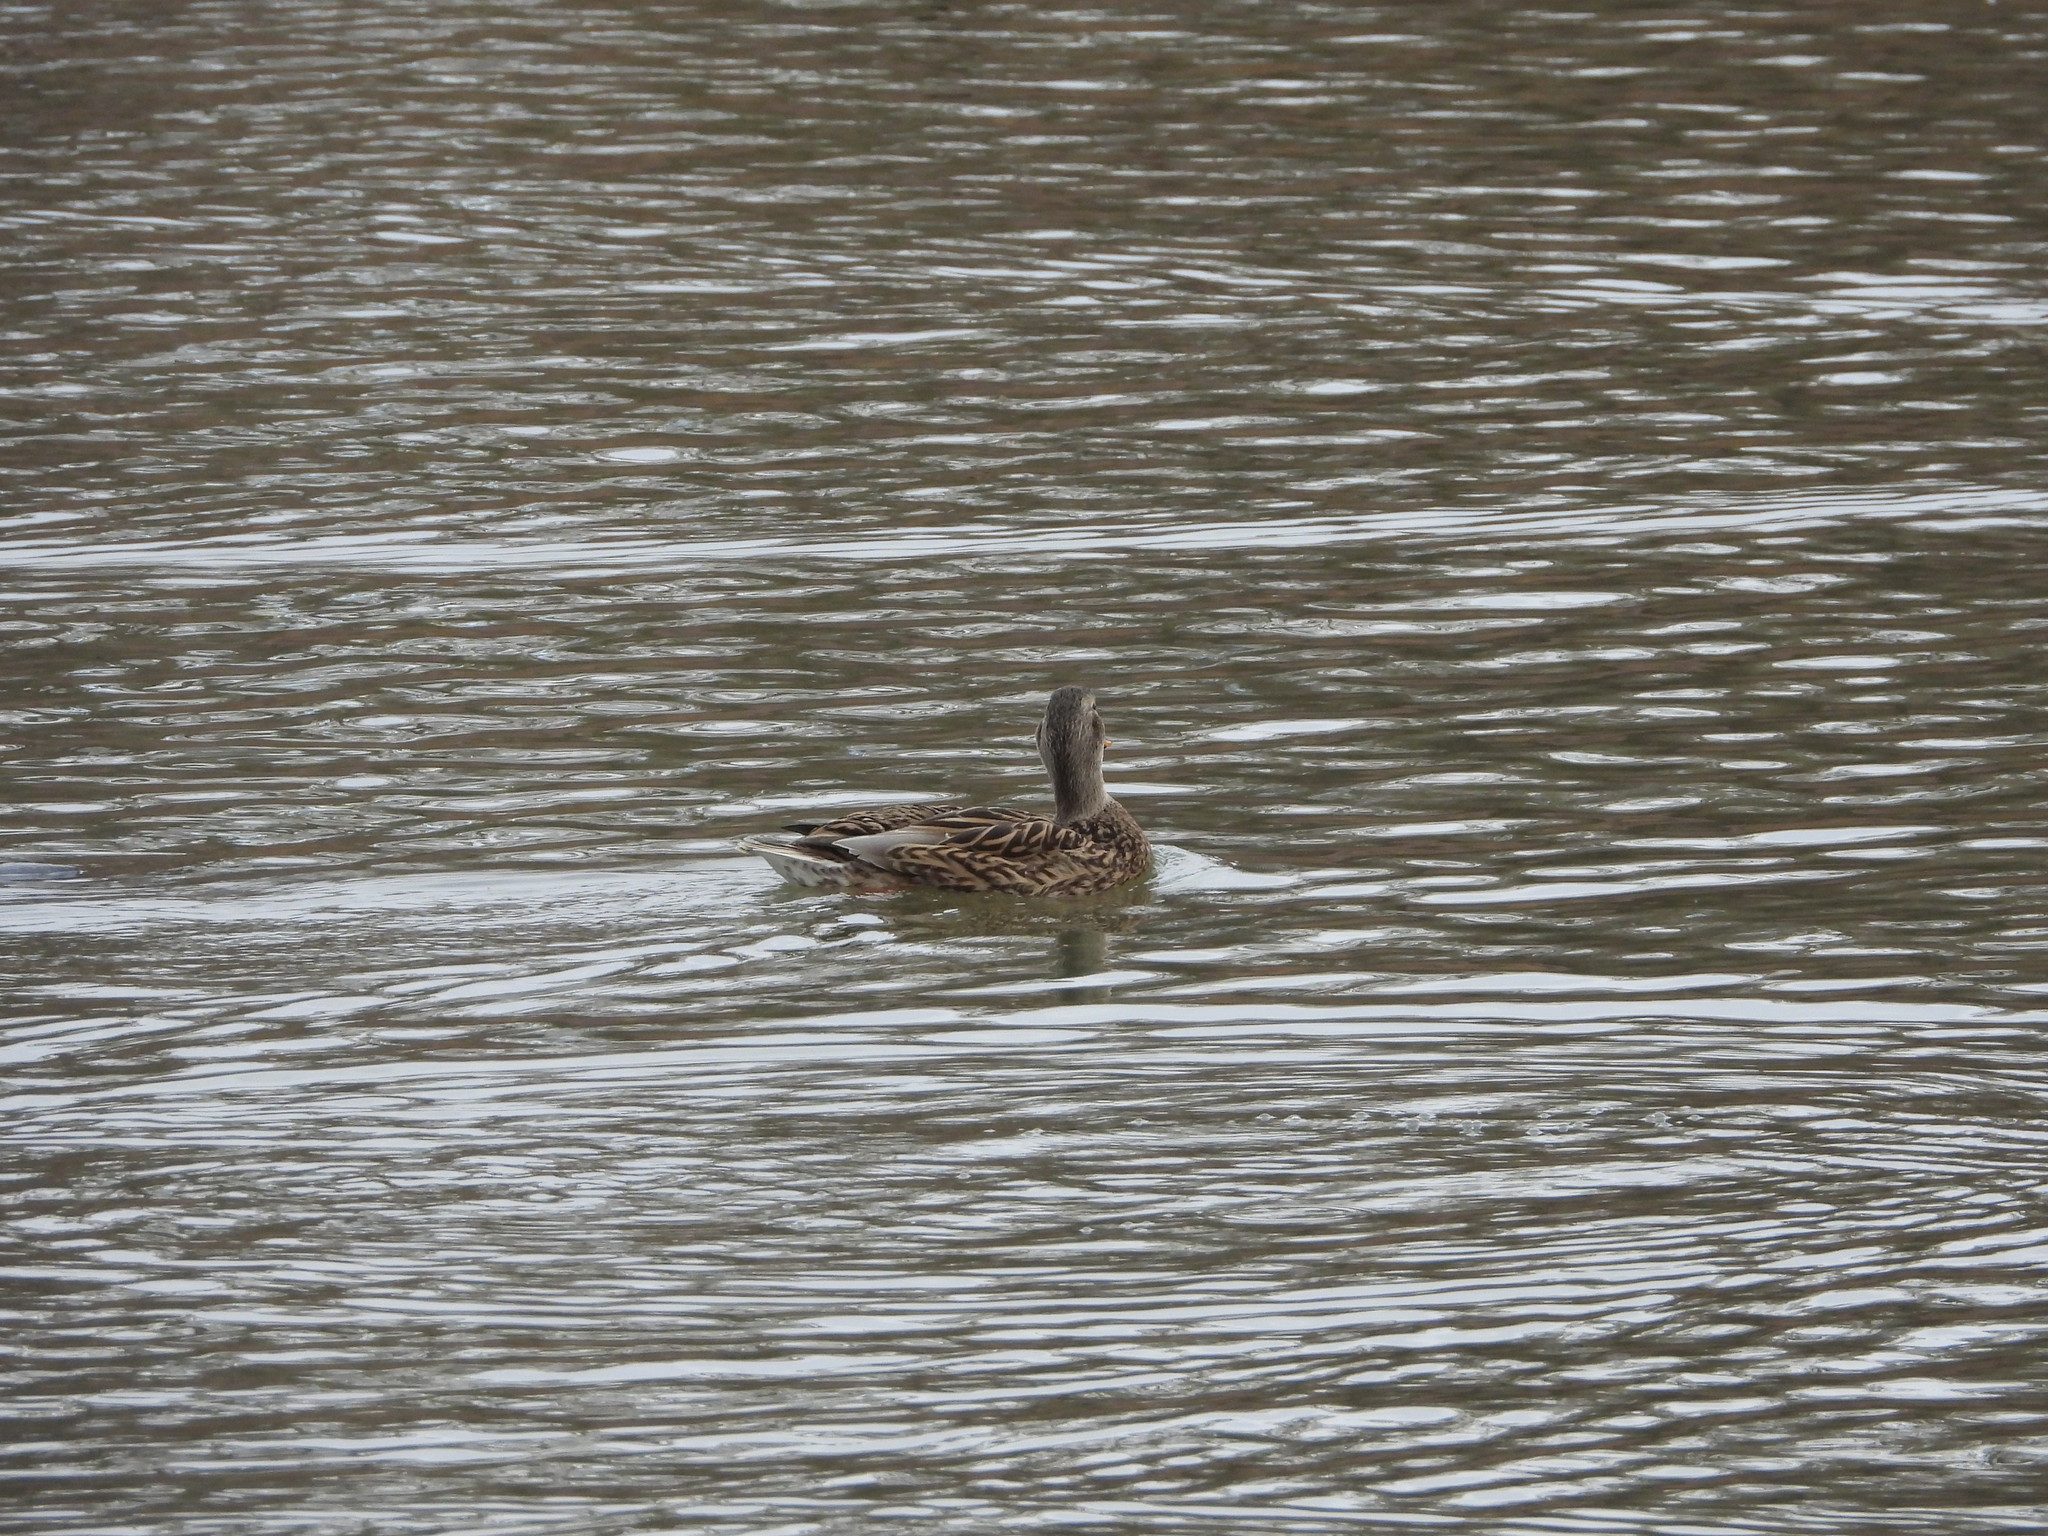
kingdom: Animalia
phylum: Chordata
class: Aves
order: Anseriformes
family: Anatidae
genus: Anas
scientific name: Anas platyrhynchos
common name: Mallard
